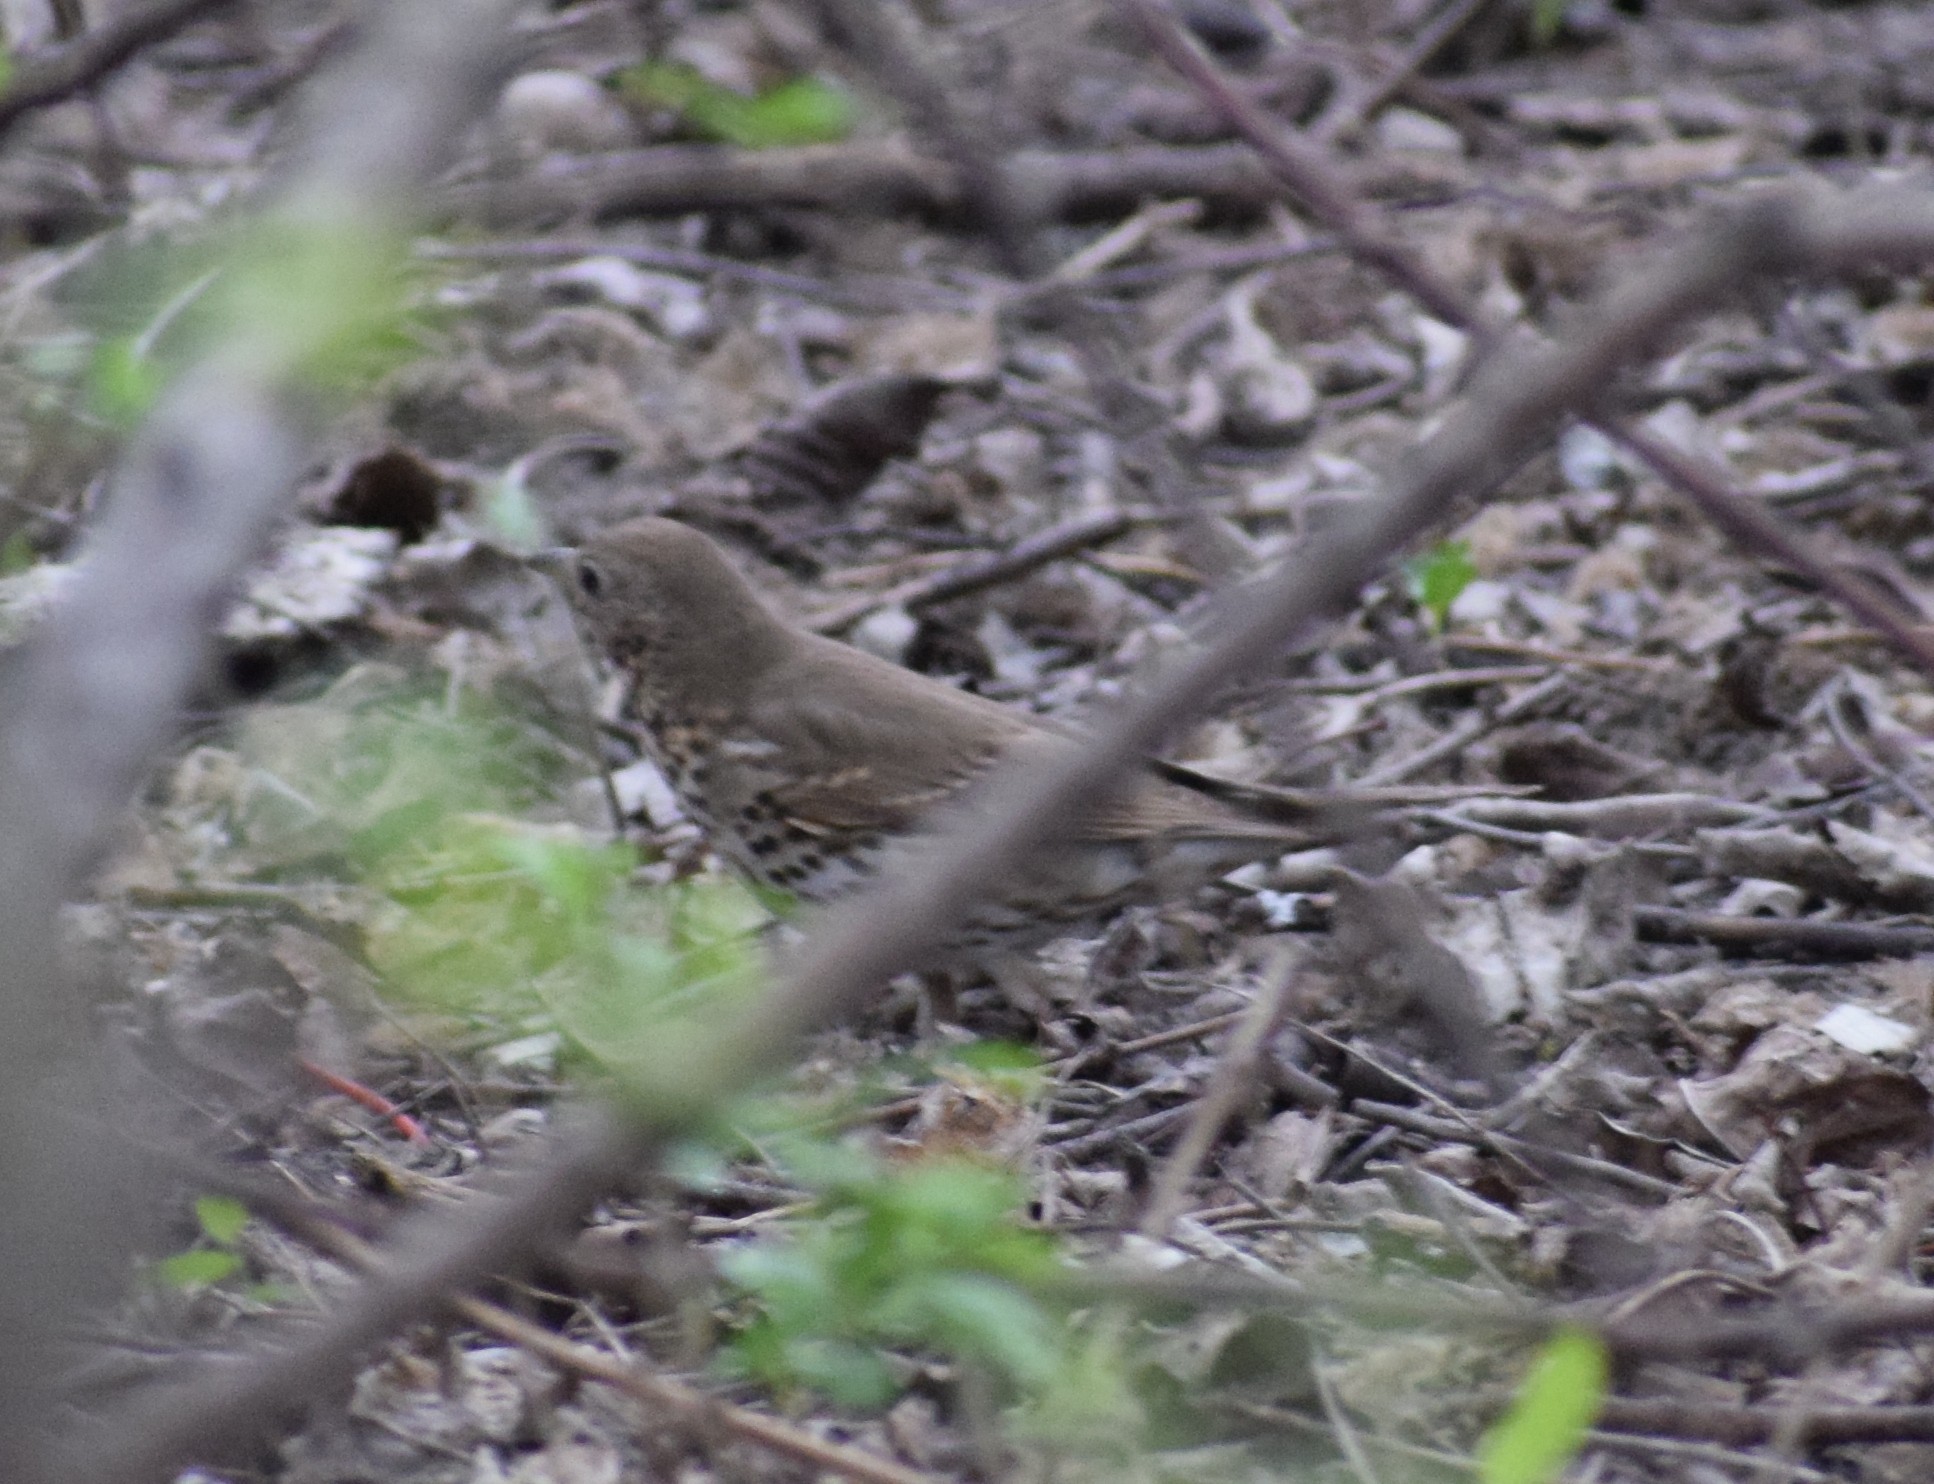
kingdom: Animalia
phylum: Chordata
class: Aves
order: Passeriformes
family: Turdidae
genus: Turdus
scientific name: Turdus philomelos
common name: Song thrush
